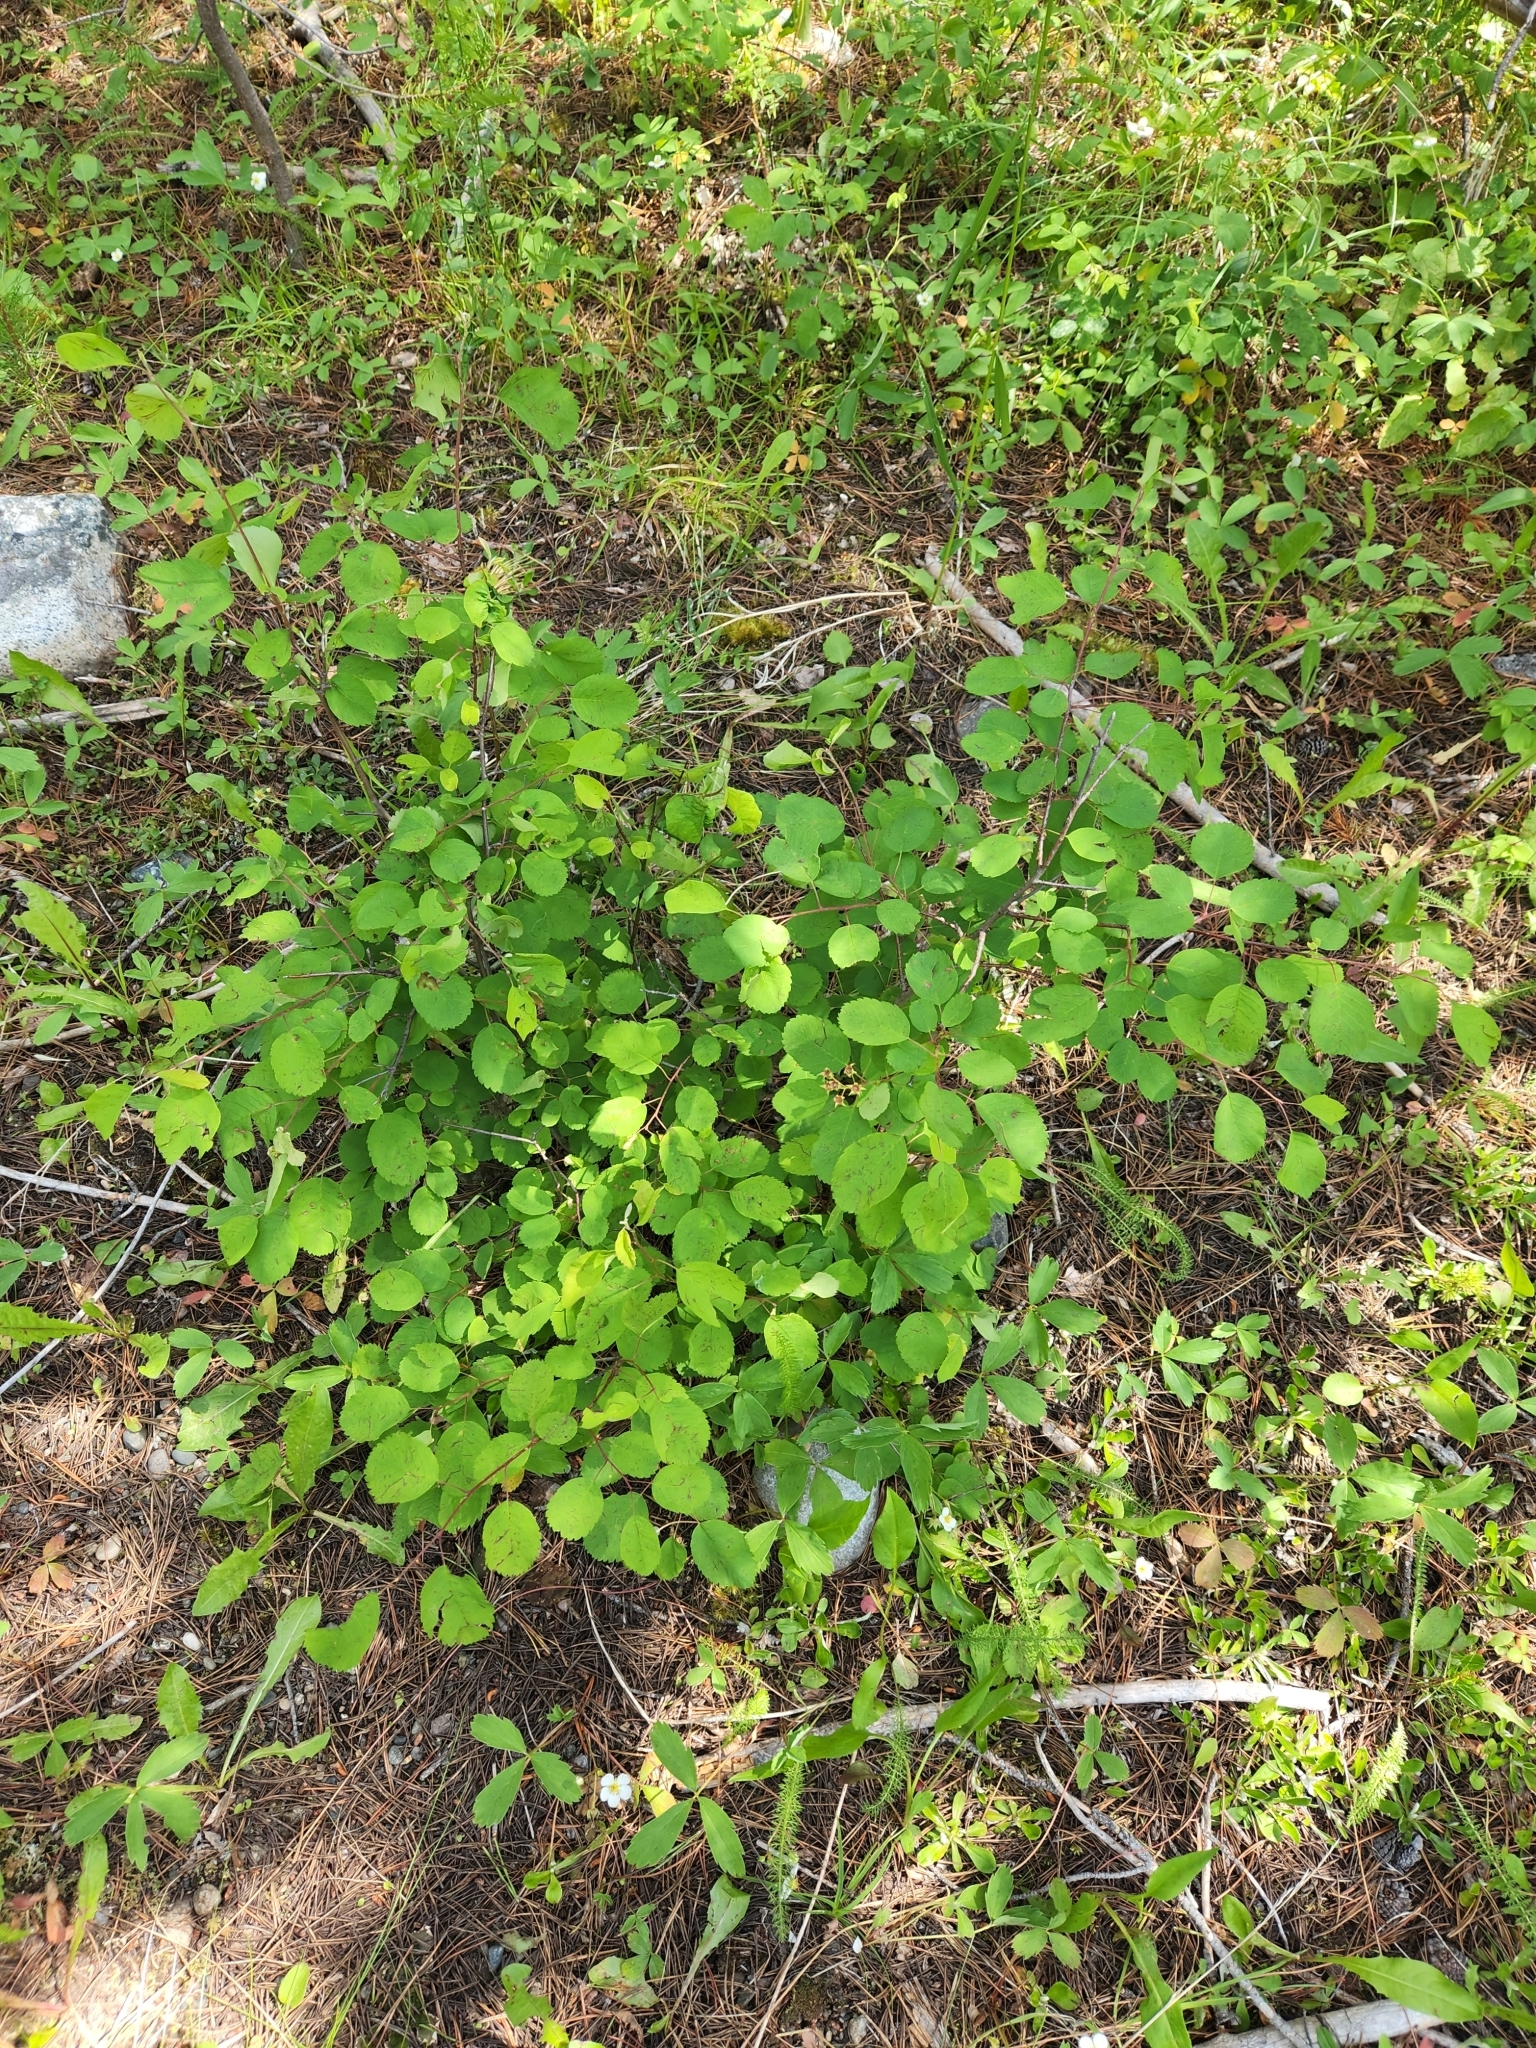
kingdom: Plantae
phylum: Tracheophyta
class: Magnoliopsida
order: Rosales
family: Rosaceae
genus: Amelanchier
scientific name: Amelanchier alnifolia
